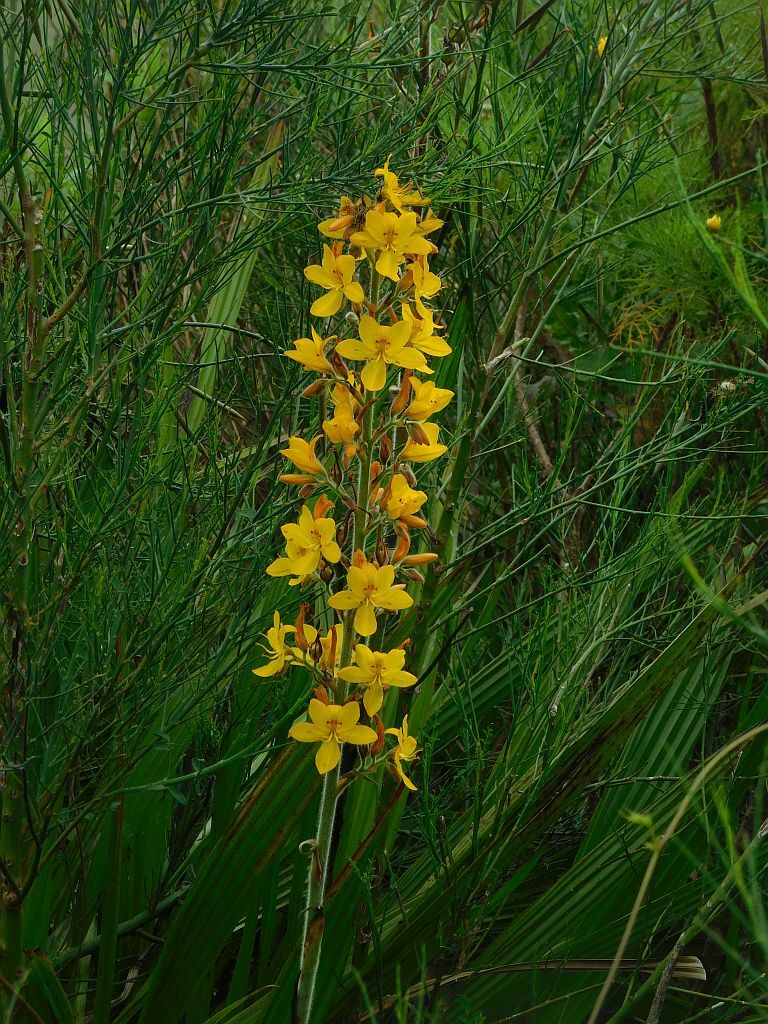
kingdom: Plantae
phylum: Tracheophyta
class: Liliopsida
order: Commelinales
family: Haemodoraceae
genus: Wachendorfia
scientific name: Wachendorfia thyrsiflora
